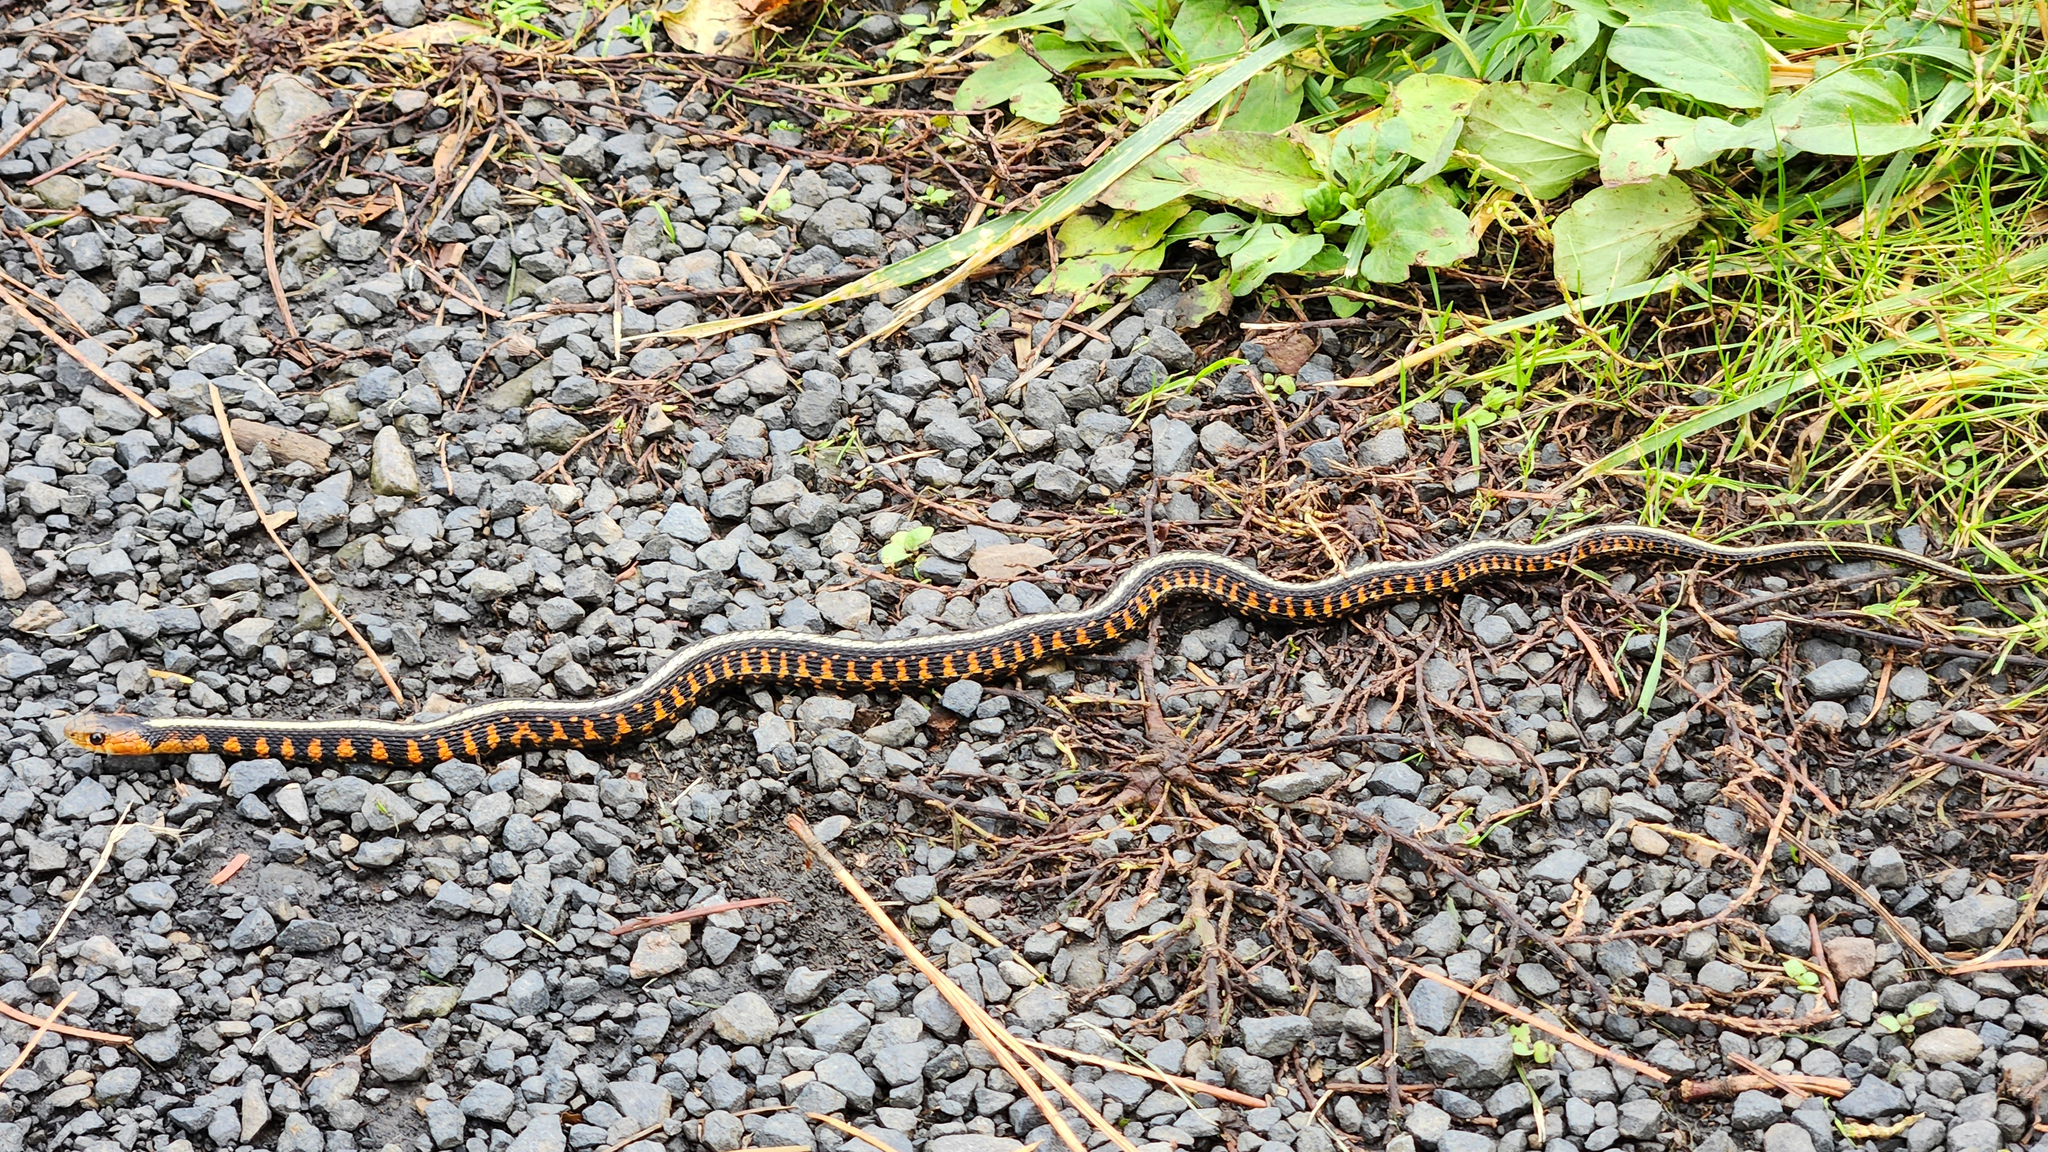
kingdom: Animalia
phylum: Chordata
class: Squamata
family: Colubridae
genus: Thamnophis
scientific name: Thamnophis sirtalis
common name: Common garter snake
